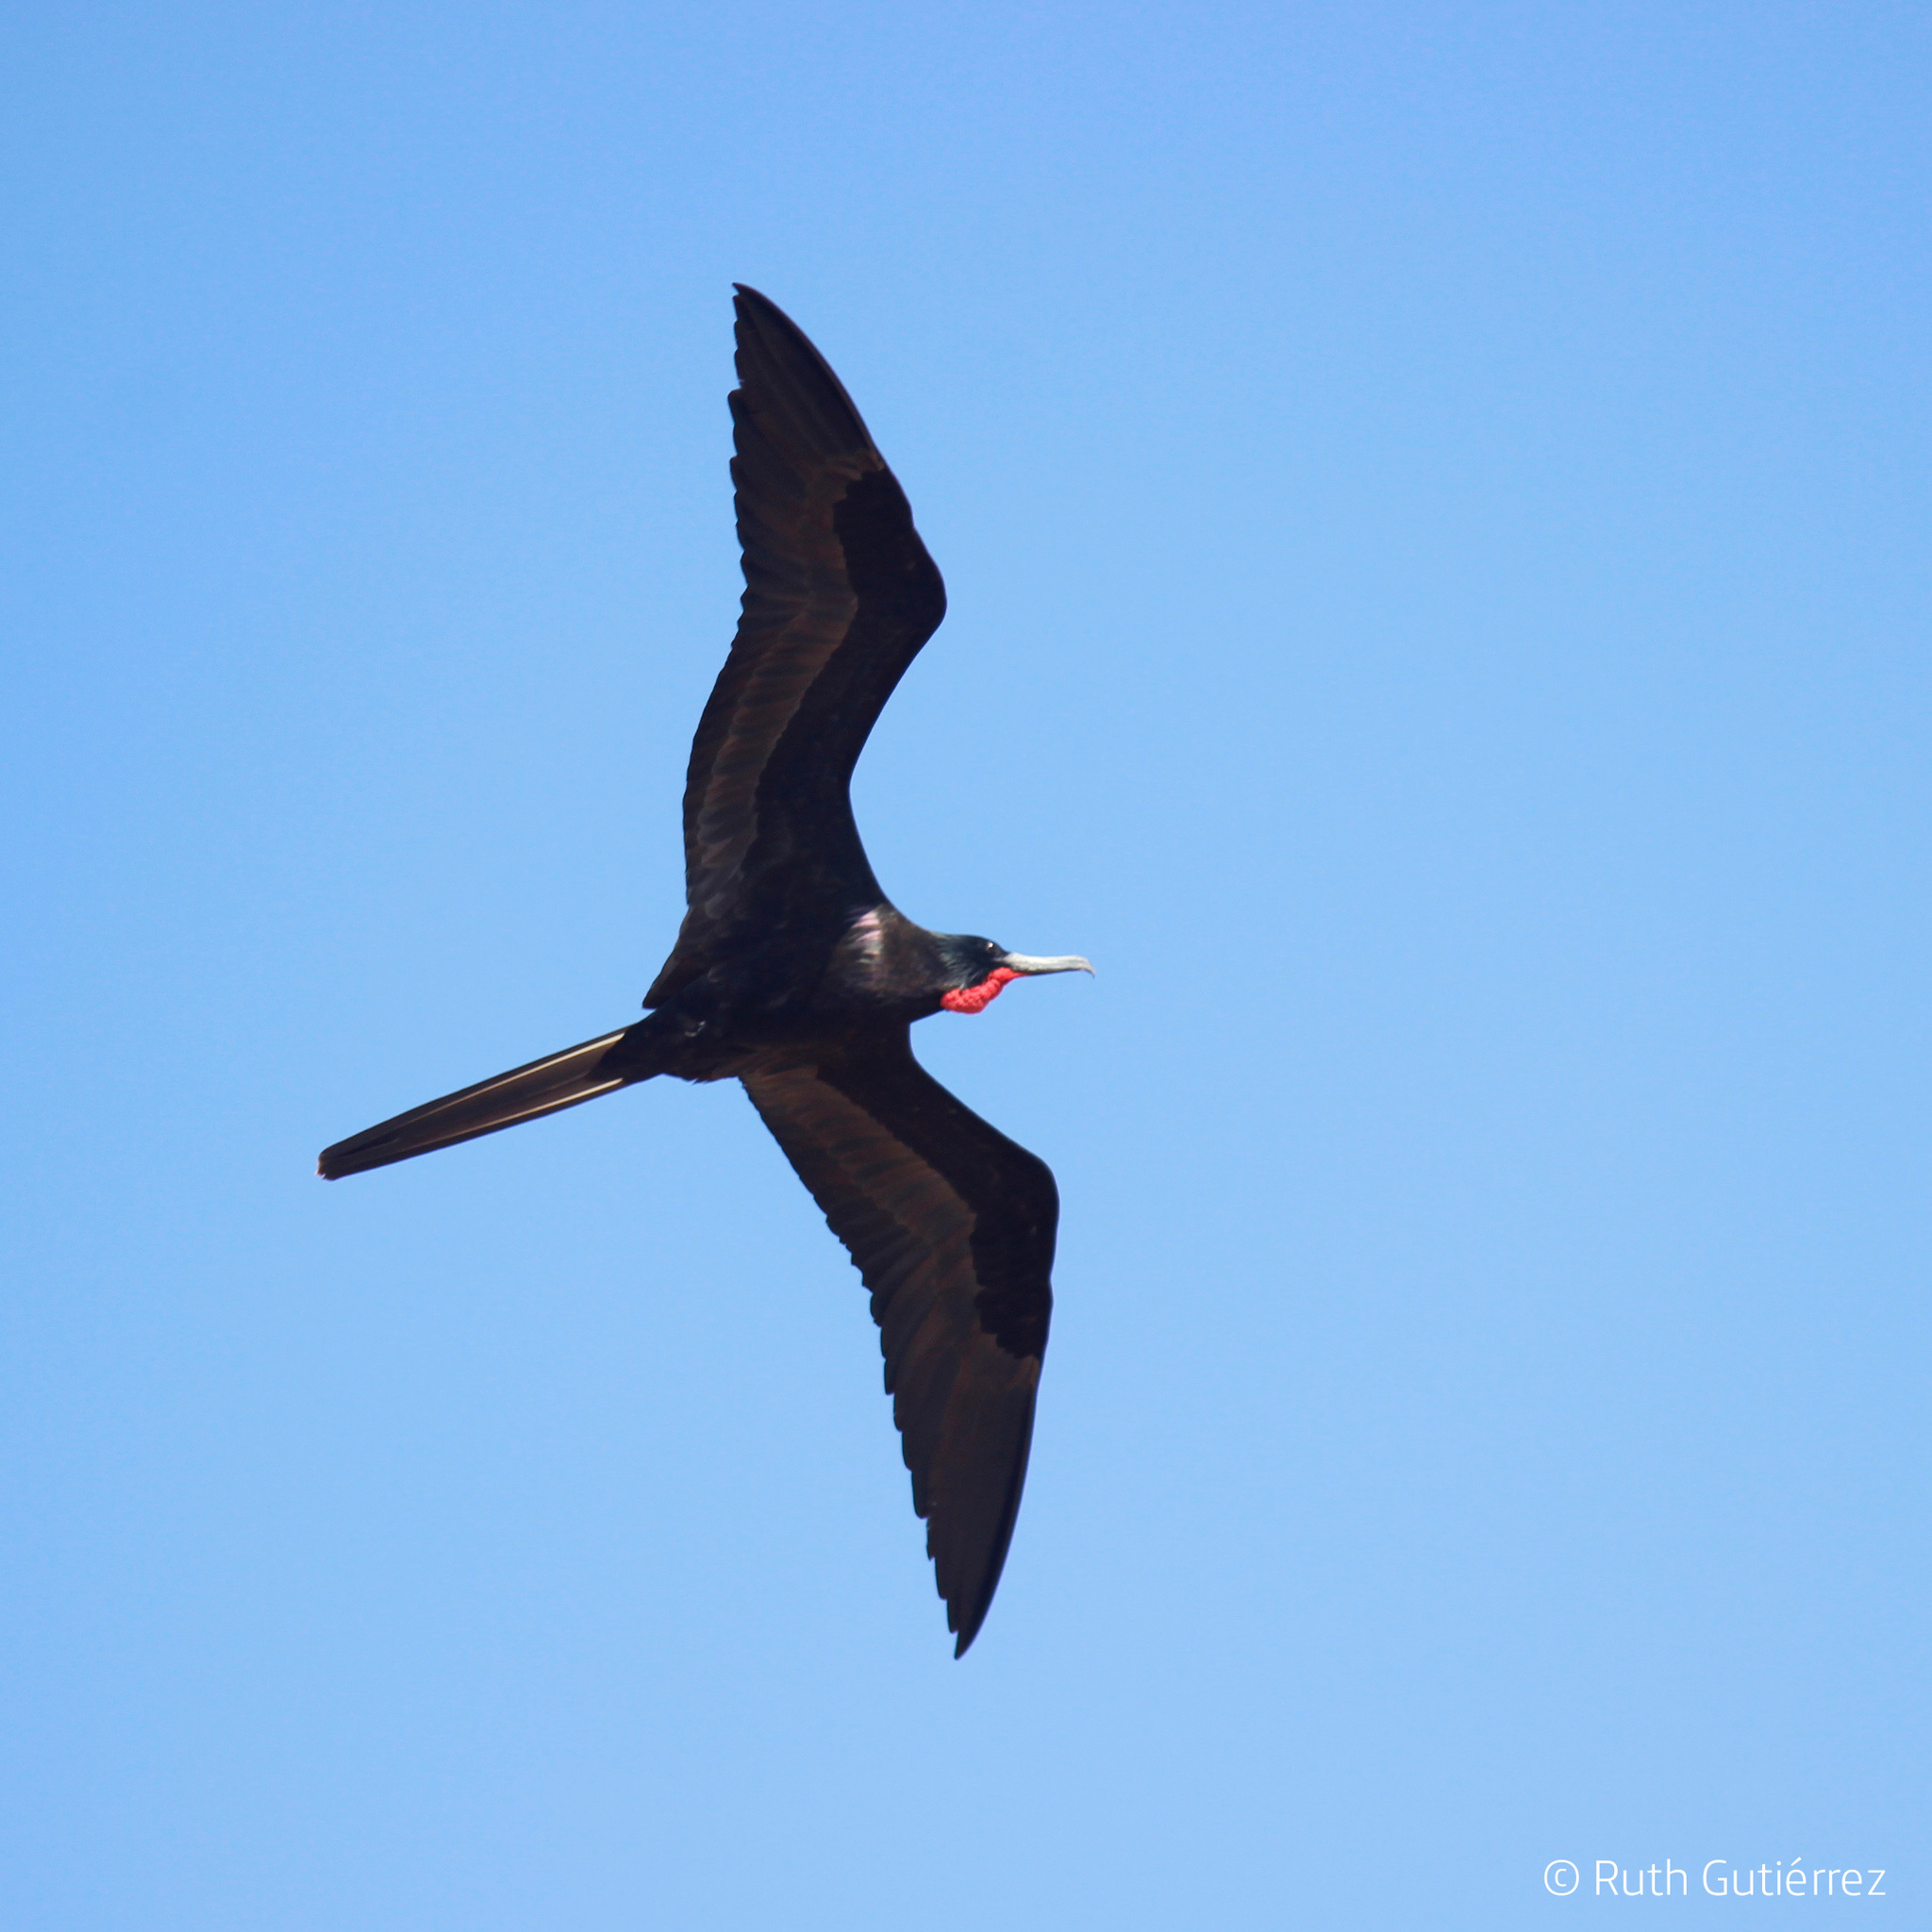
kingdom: Animalia
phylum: Chordata
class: Aves
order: Suliformes
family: Fregatidae
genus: Fregata
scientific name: Fregata magnificens
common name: Magnificent frigatebird
